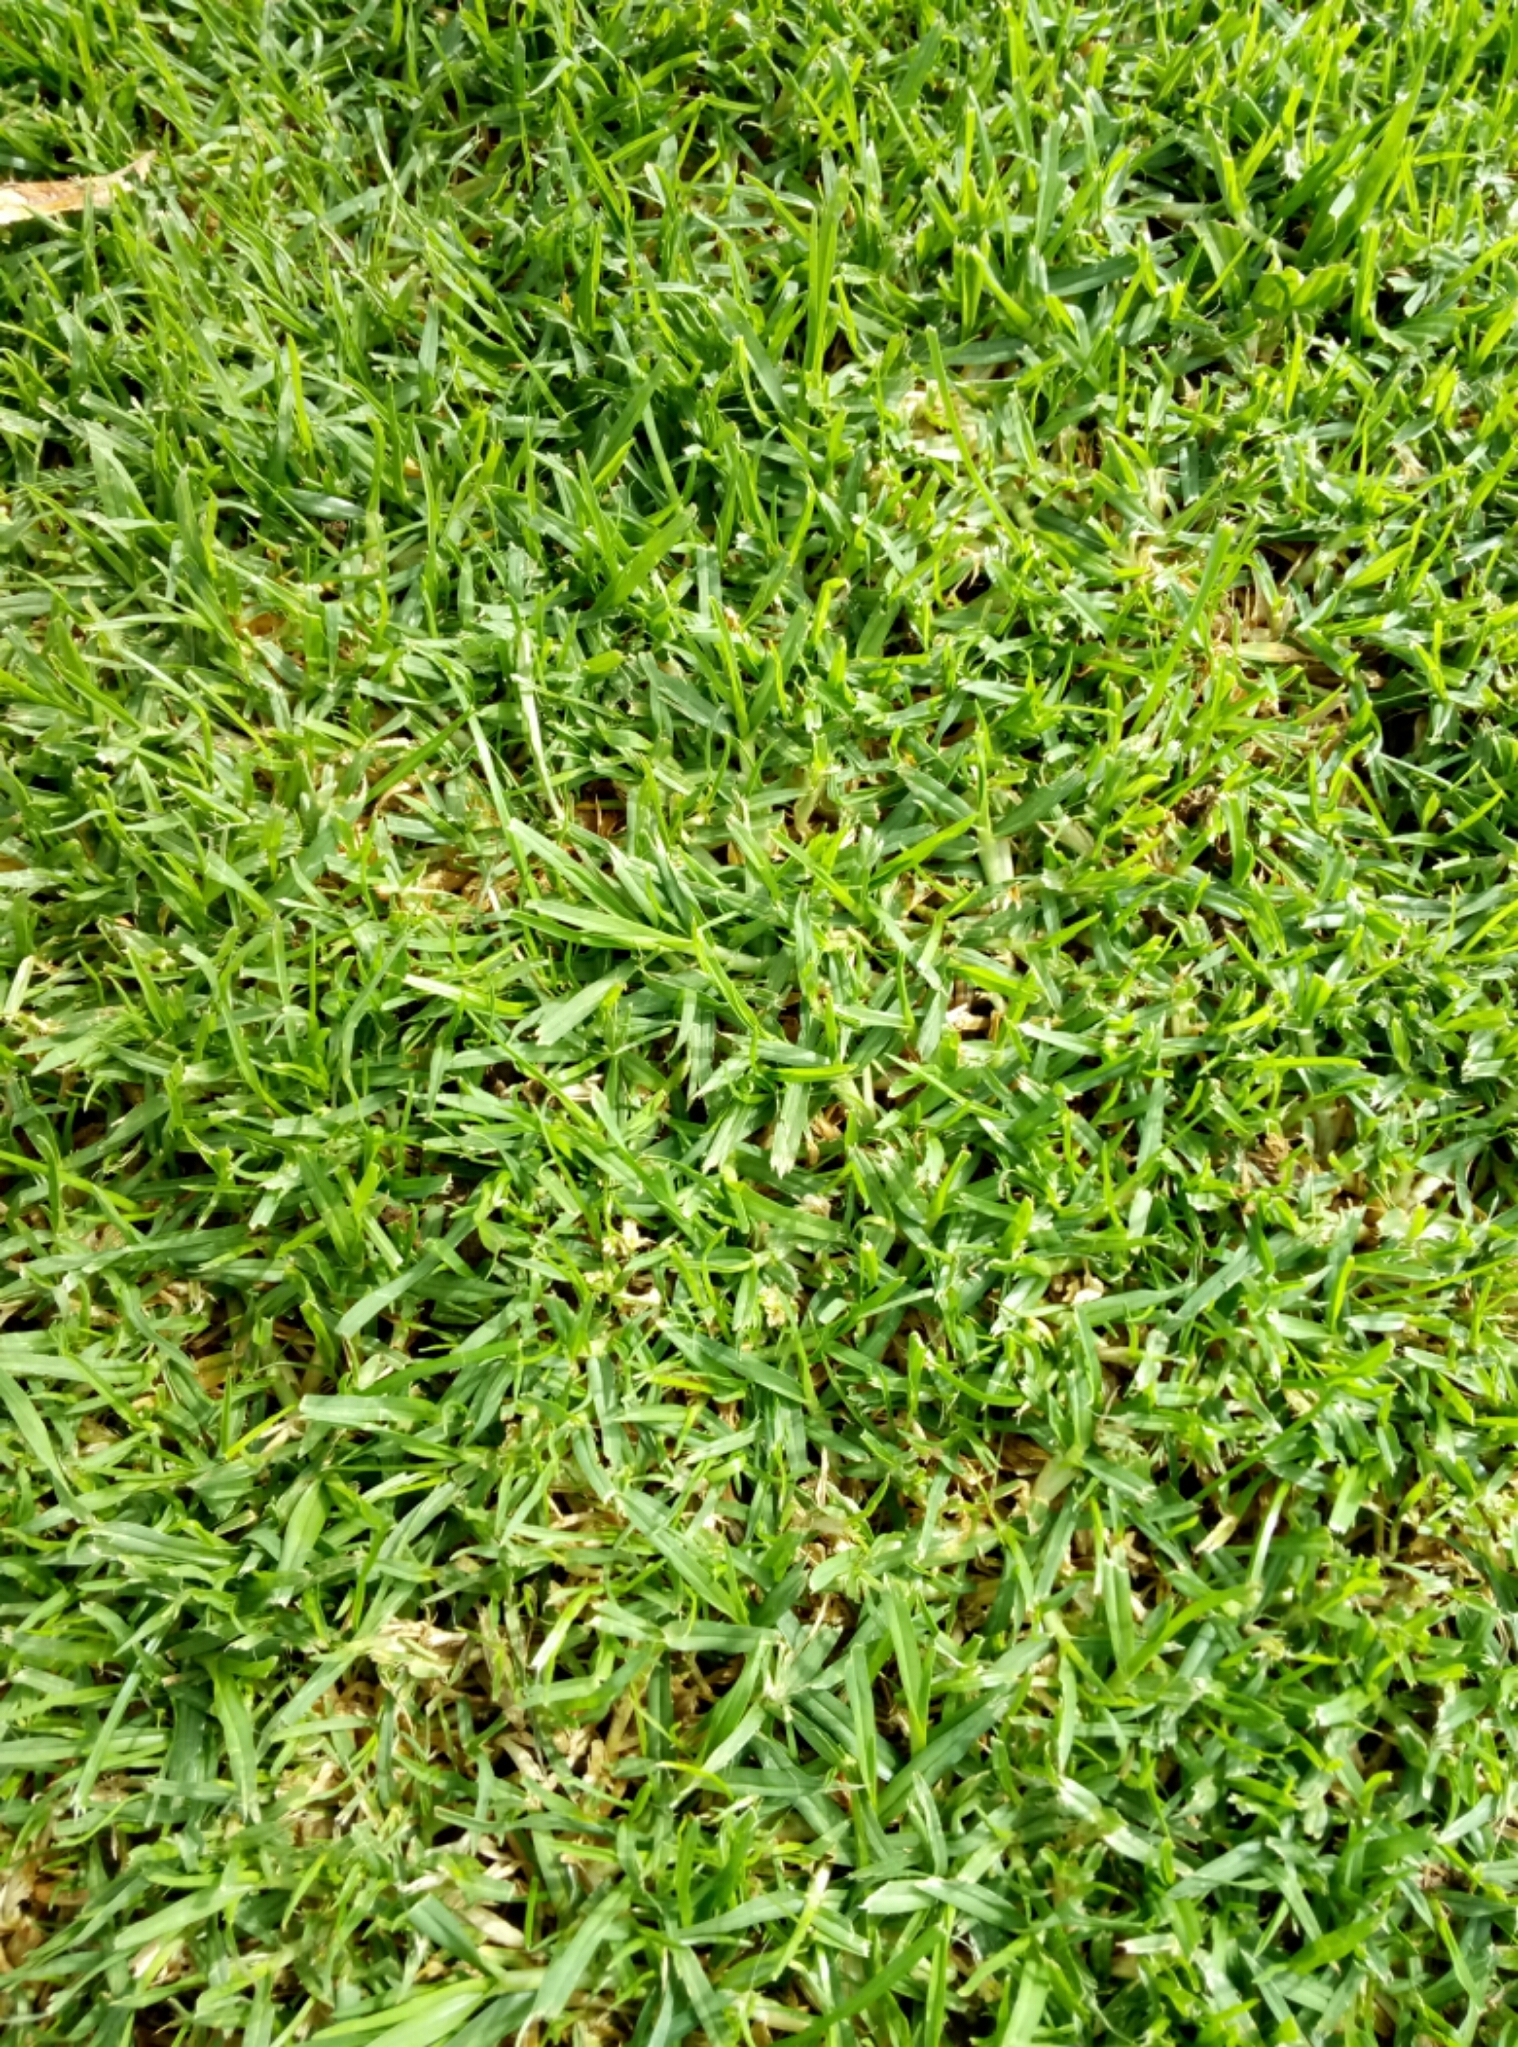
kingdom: Plantae
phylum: Tracheophyta
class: Liliopsida
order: Poales
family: Poaceae
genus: Cenchrus
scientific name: Cenchrus clandestinus
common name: Kikuyugrass
